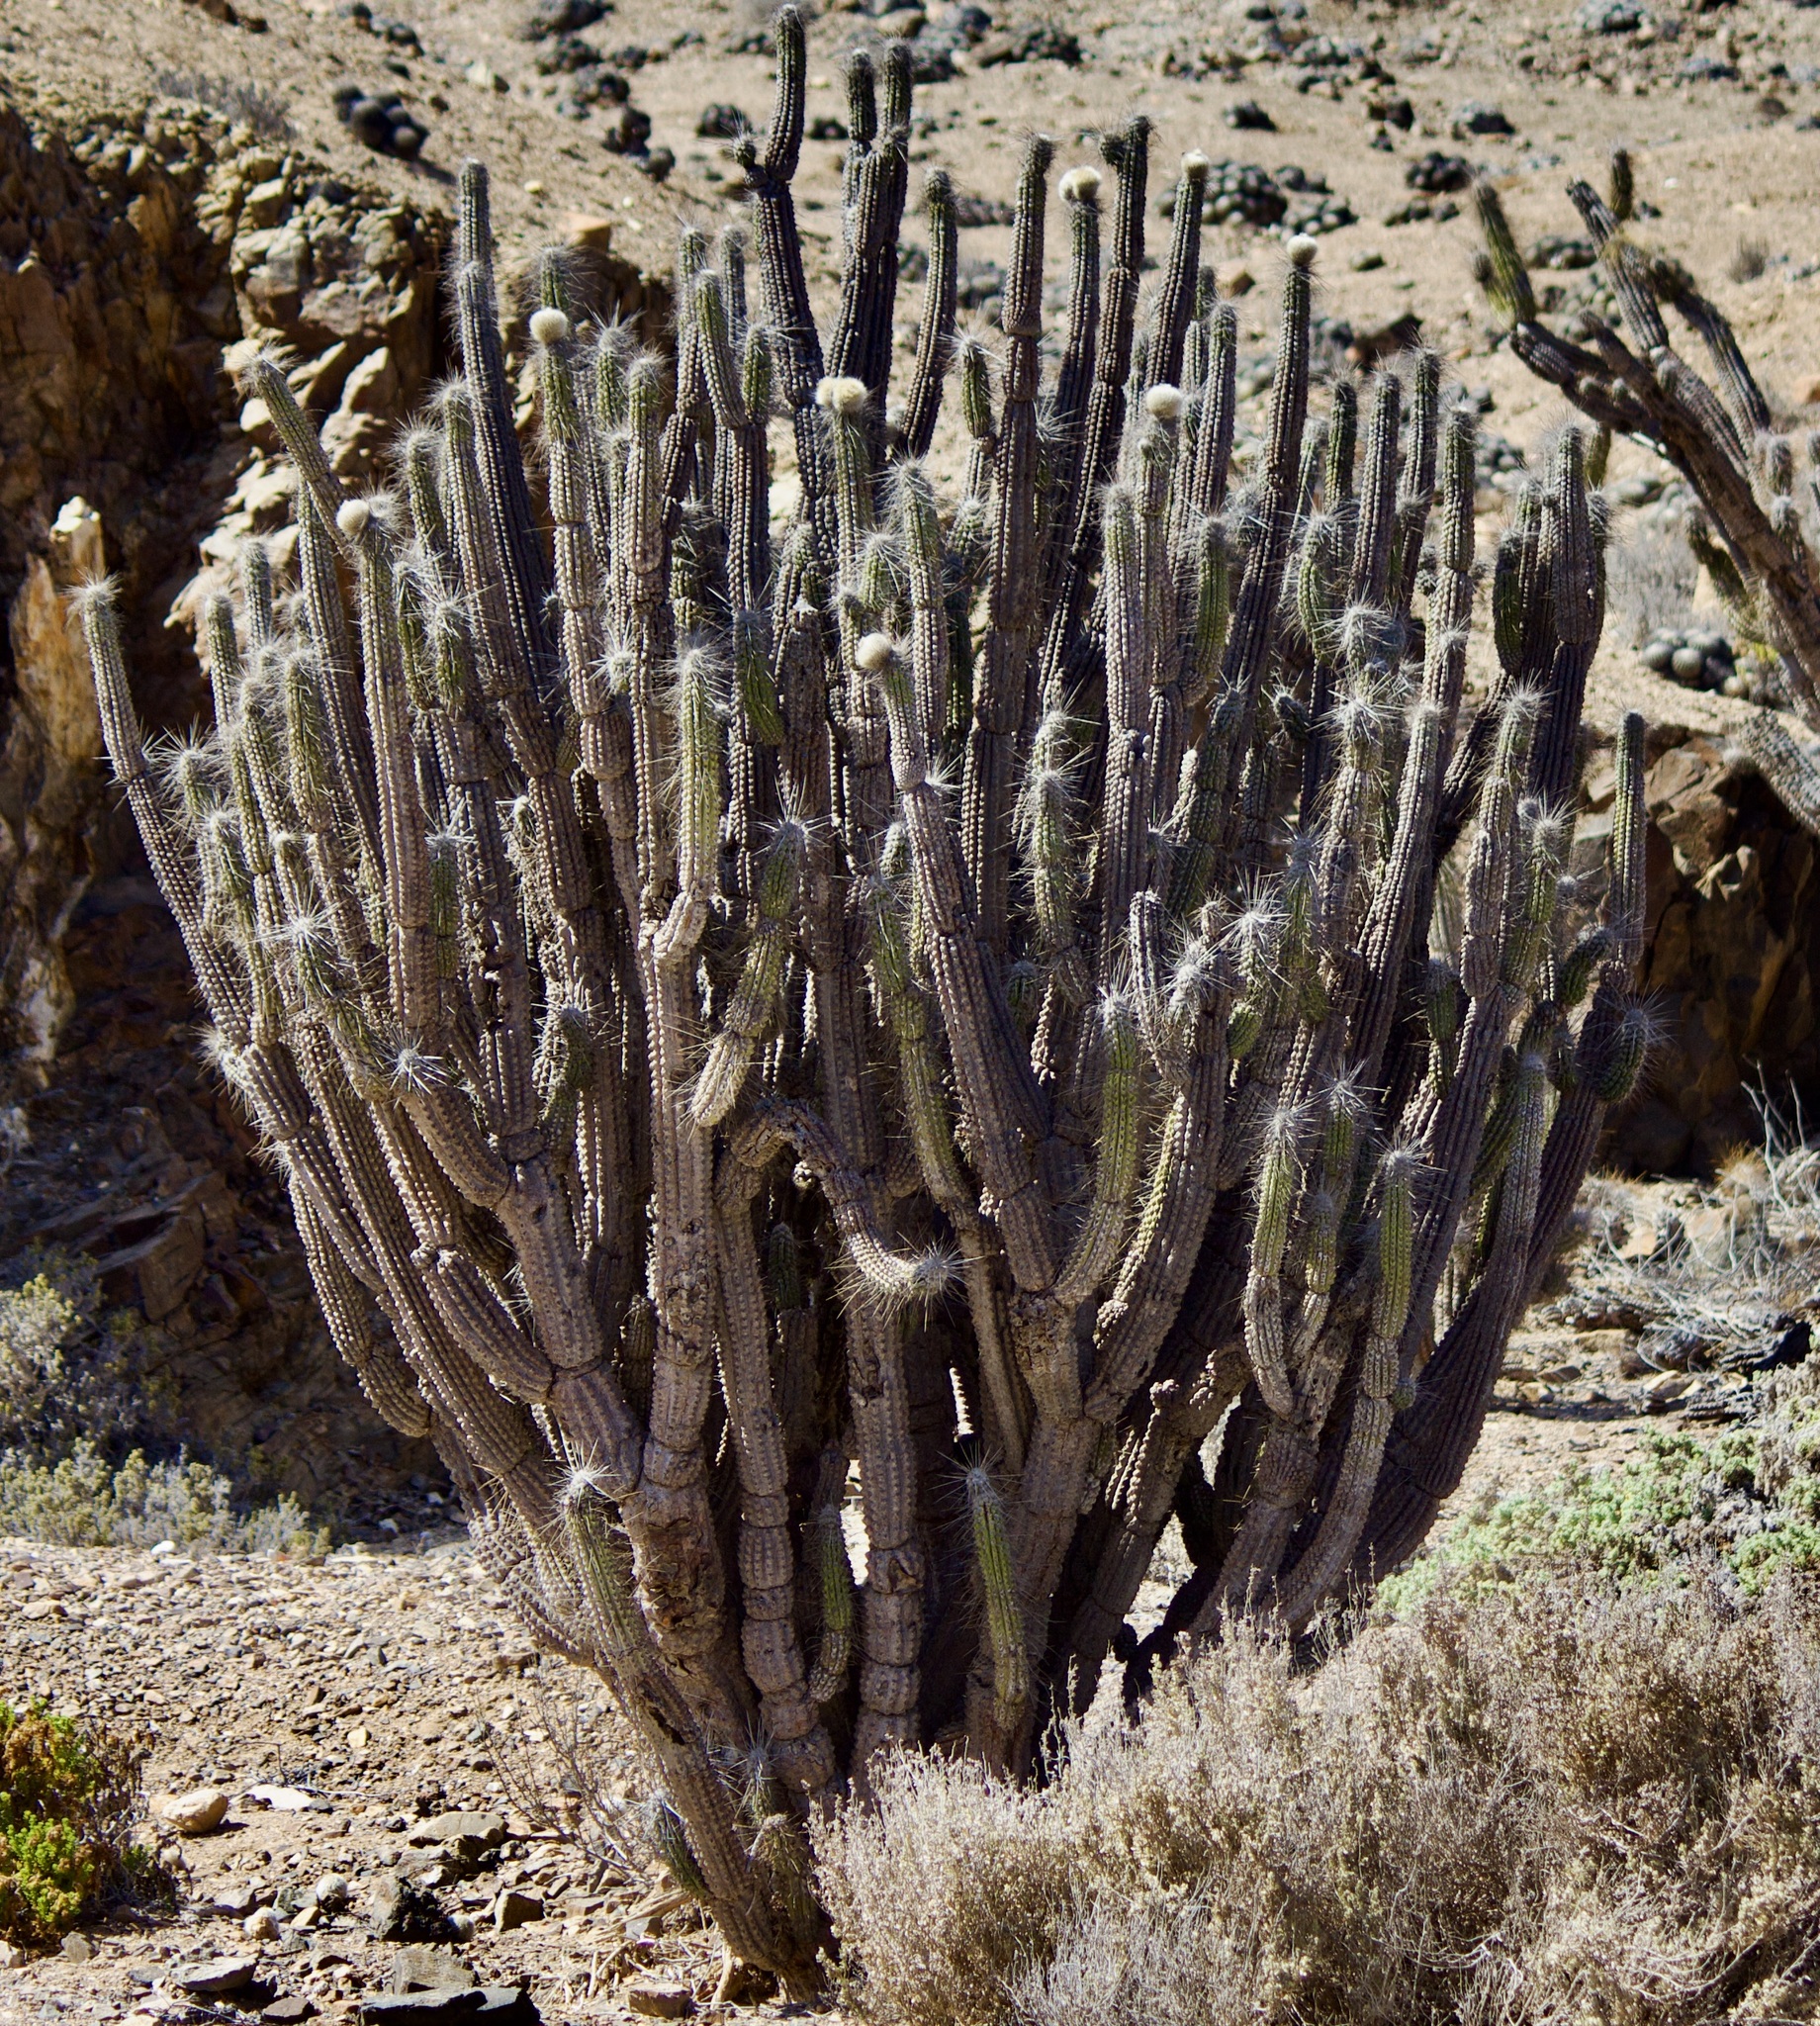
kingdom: Plantae
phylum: Tracheophyta
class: Magnoliopsida
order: Caryophyllales
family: Cactaceae
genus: Eulychnia
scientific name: Eulychnia breviflora
